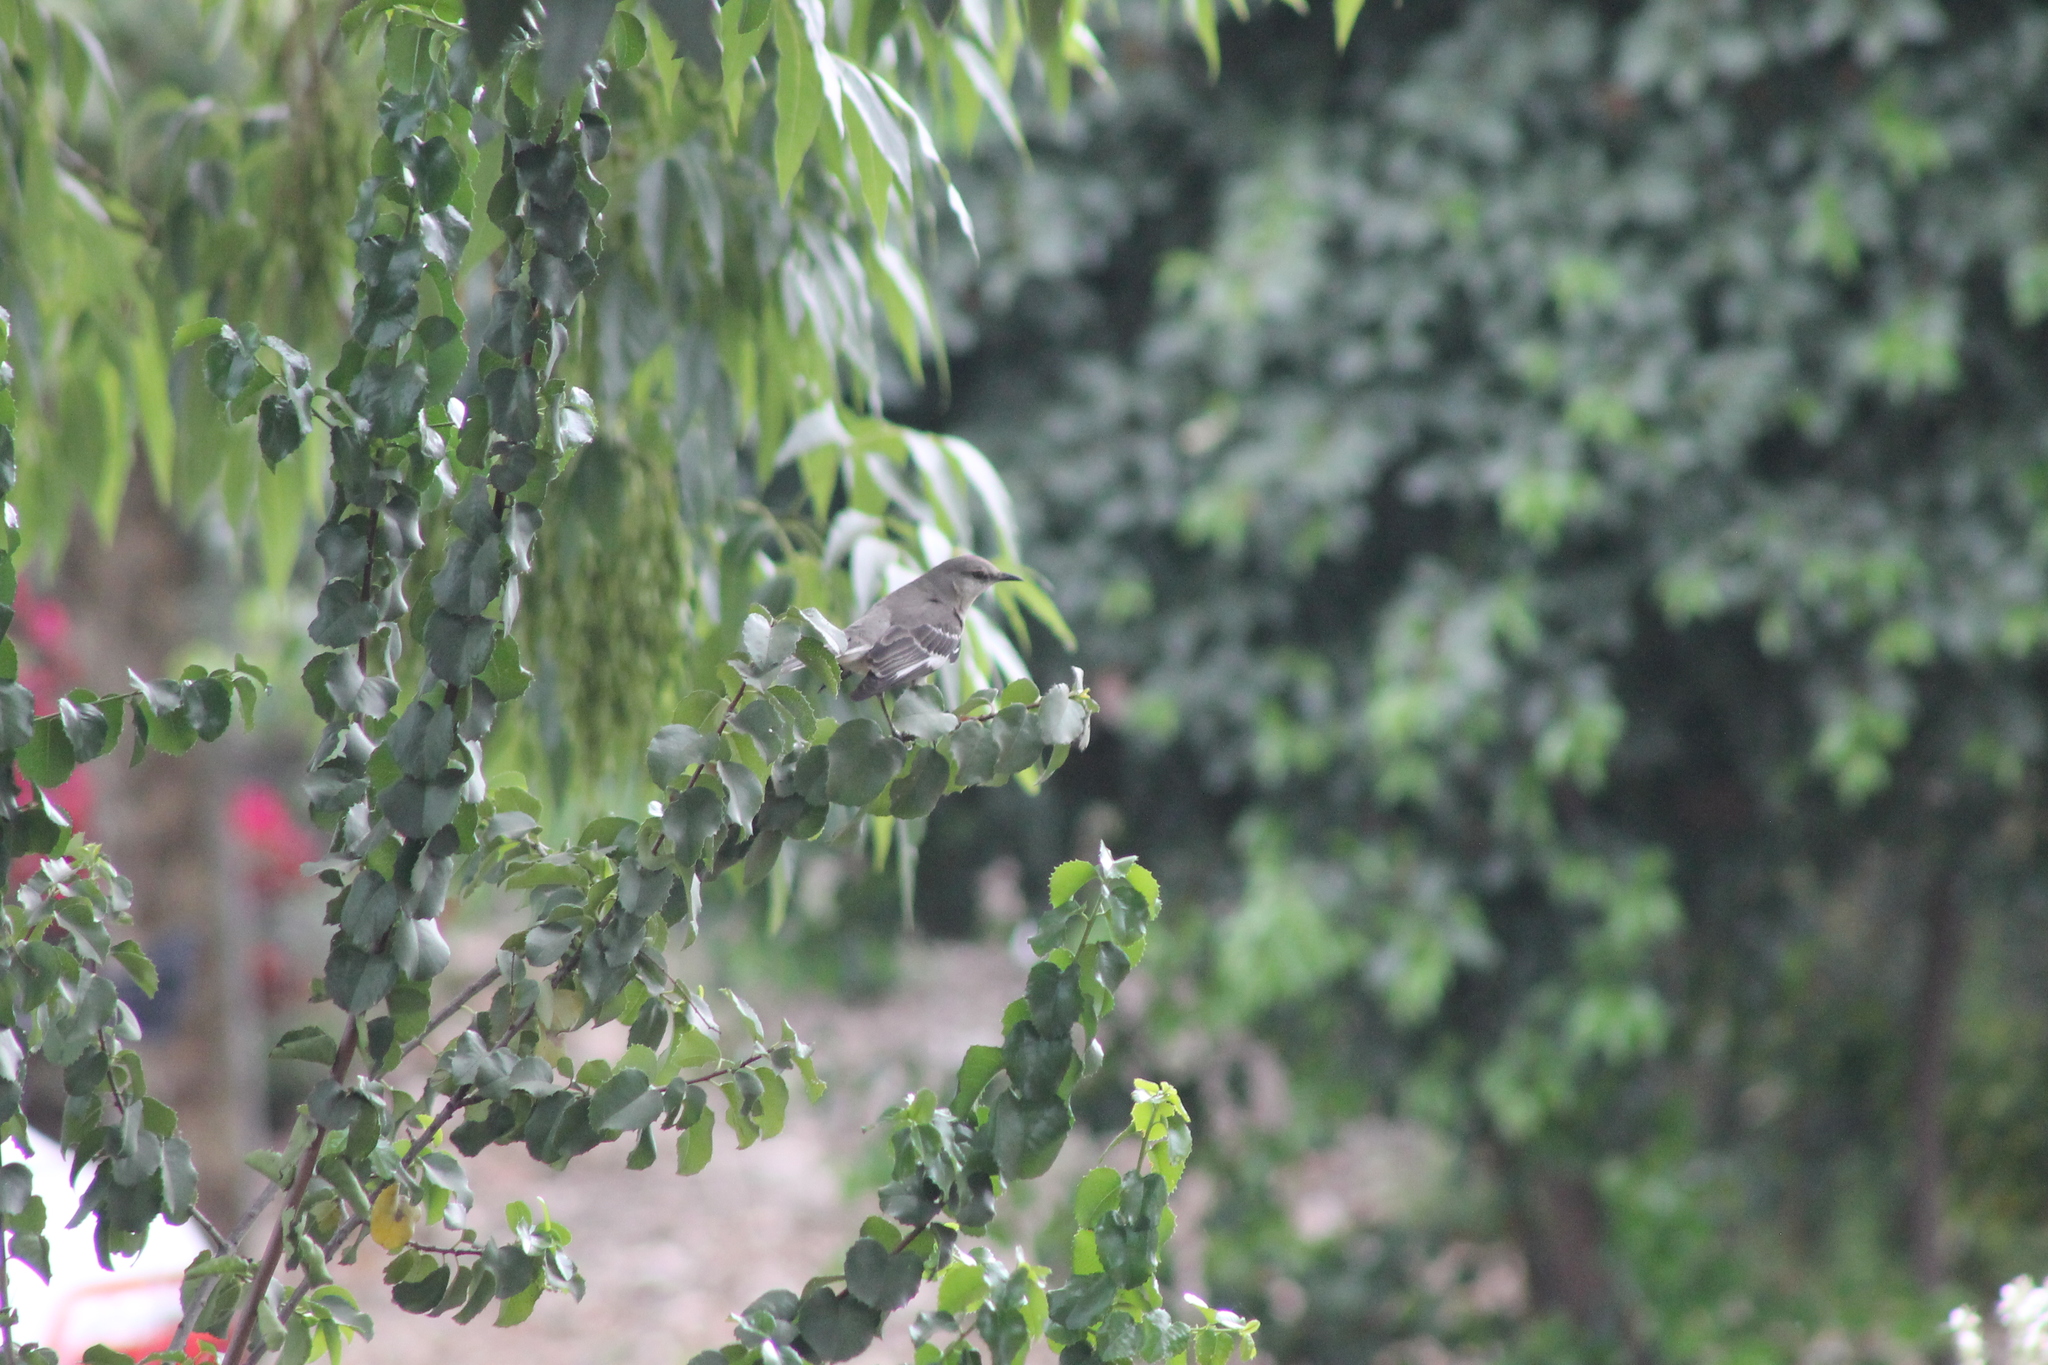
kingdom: Animalia
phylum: Chordata
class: Aves
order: Passeriformes
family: Mimidae
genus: Mimus
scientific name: Mimus polyglottos
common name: Northern mockingbird
